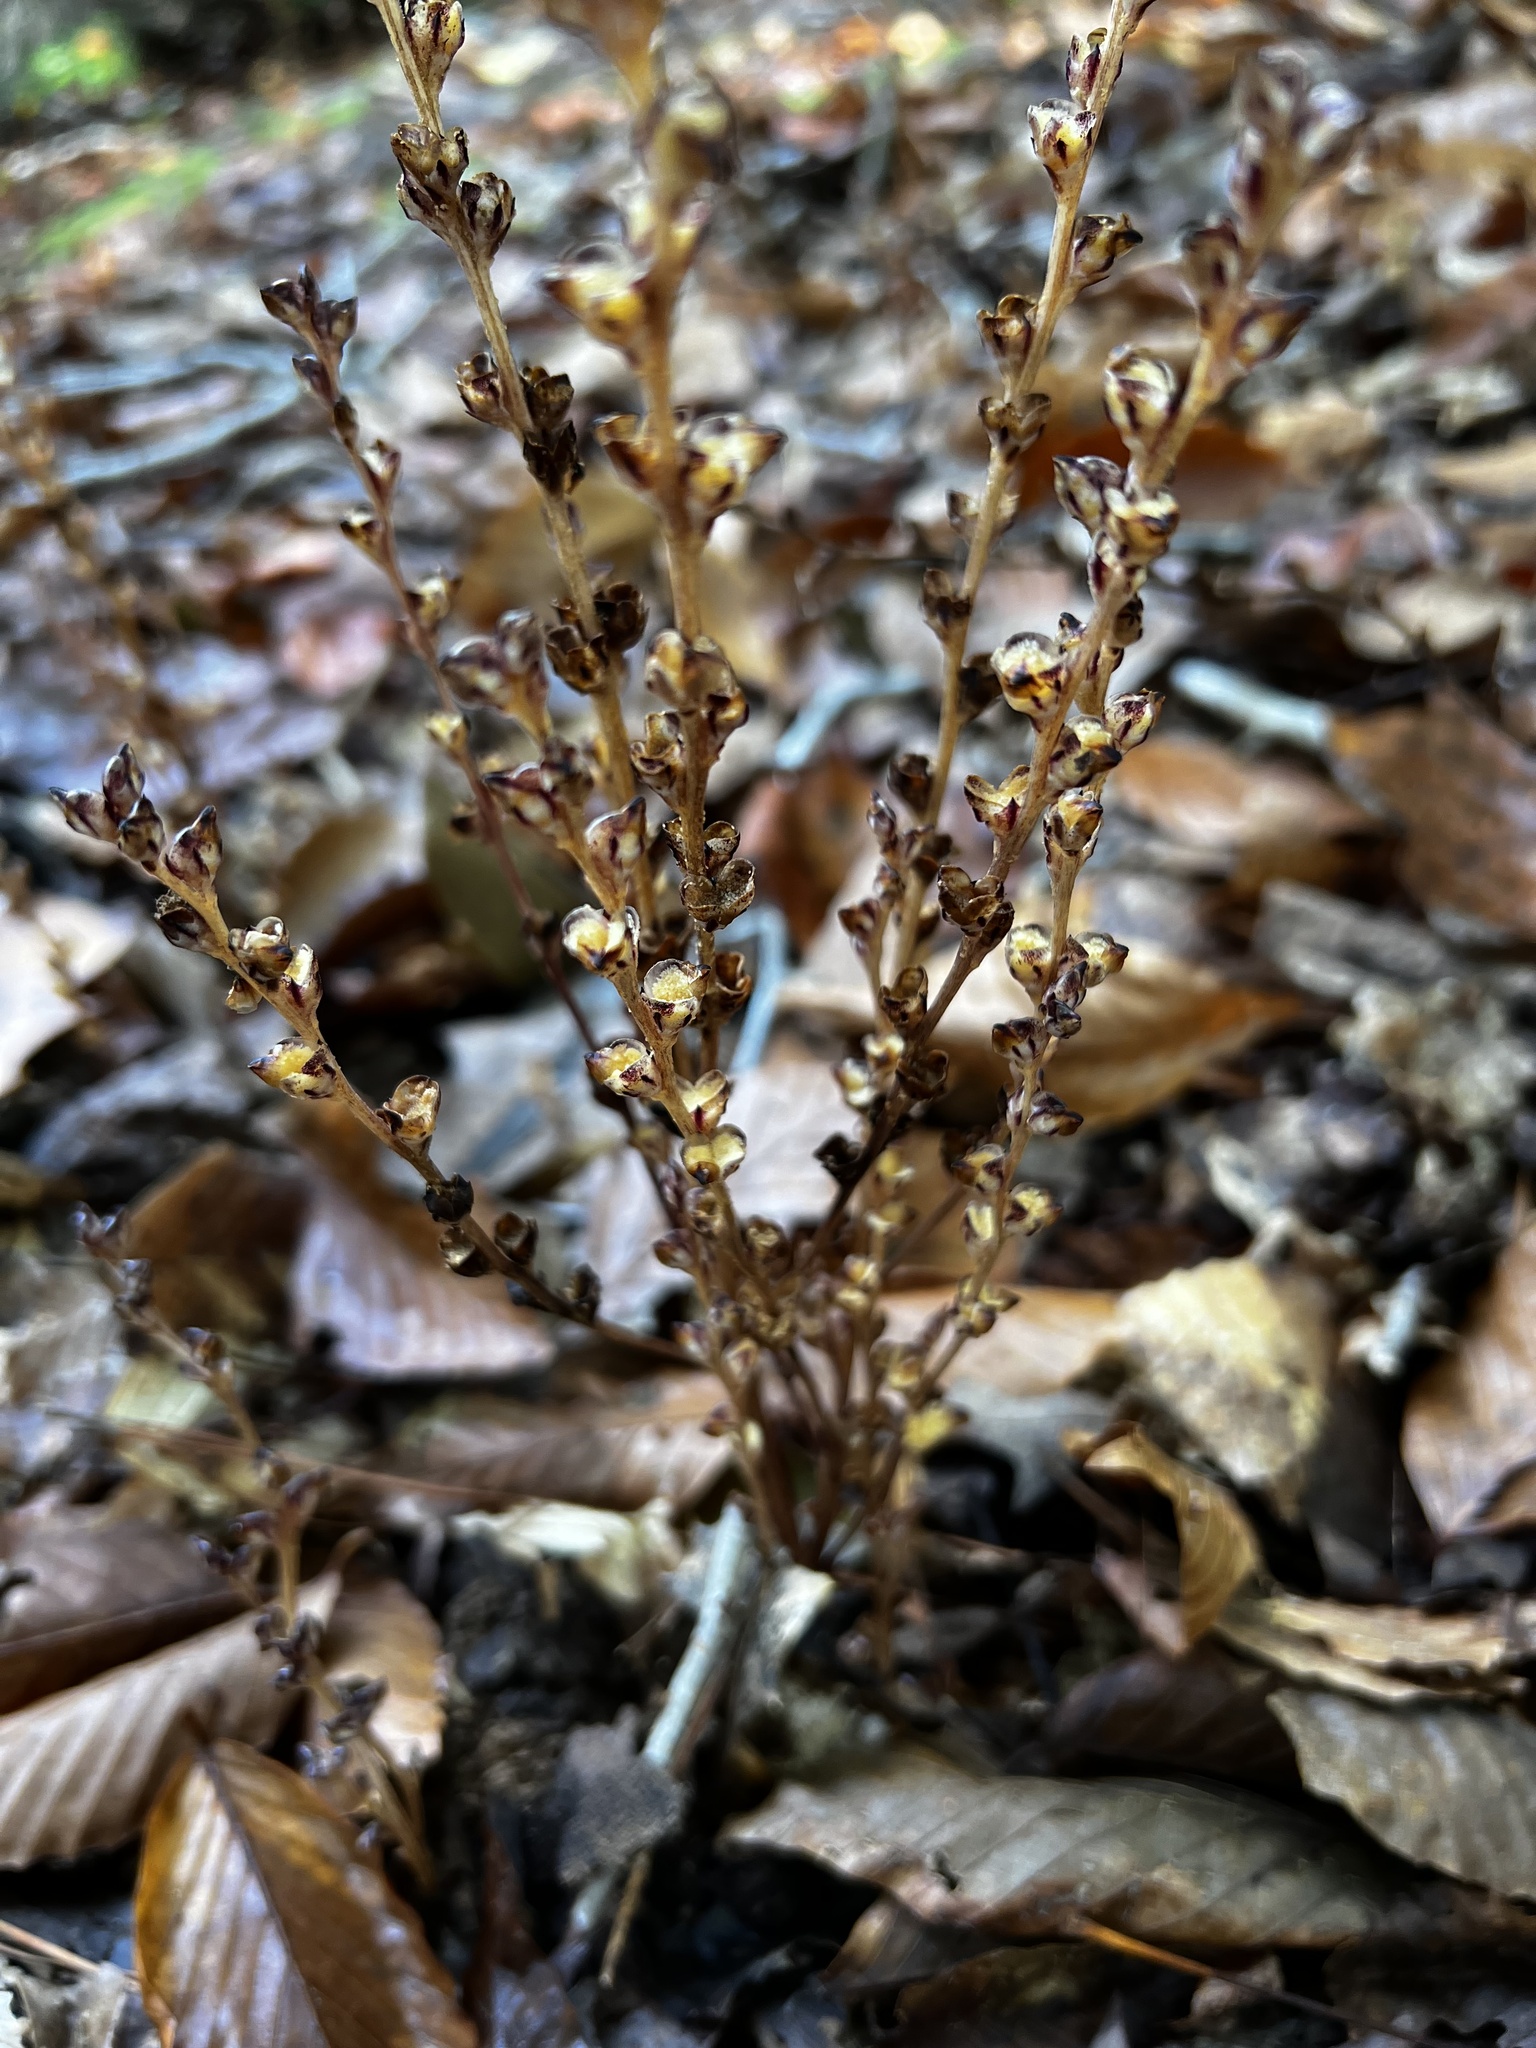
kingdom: Plantae
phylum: Tracheophyta
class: Magnoliopsida
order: Lamiales
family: Orobanchaceae
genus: Epifagus
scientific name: Epifagus virginiana
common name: Beechdrops
